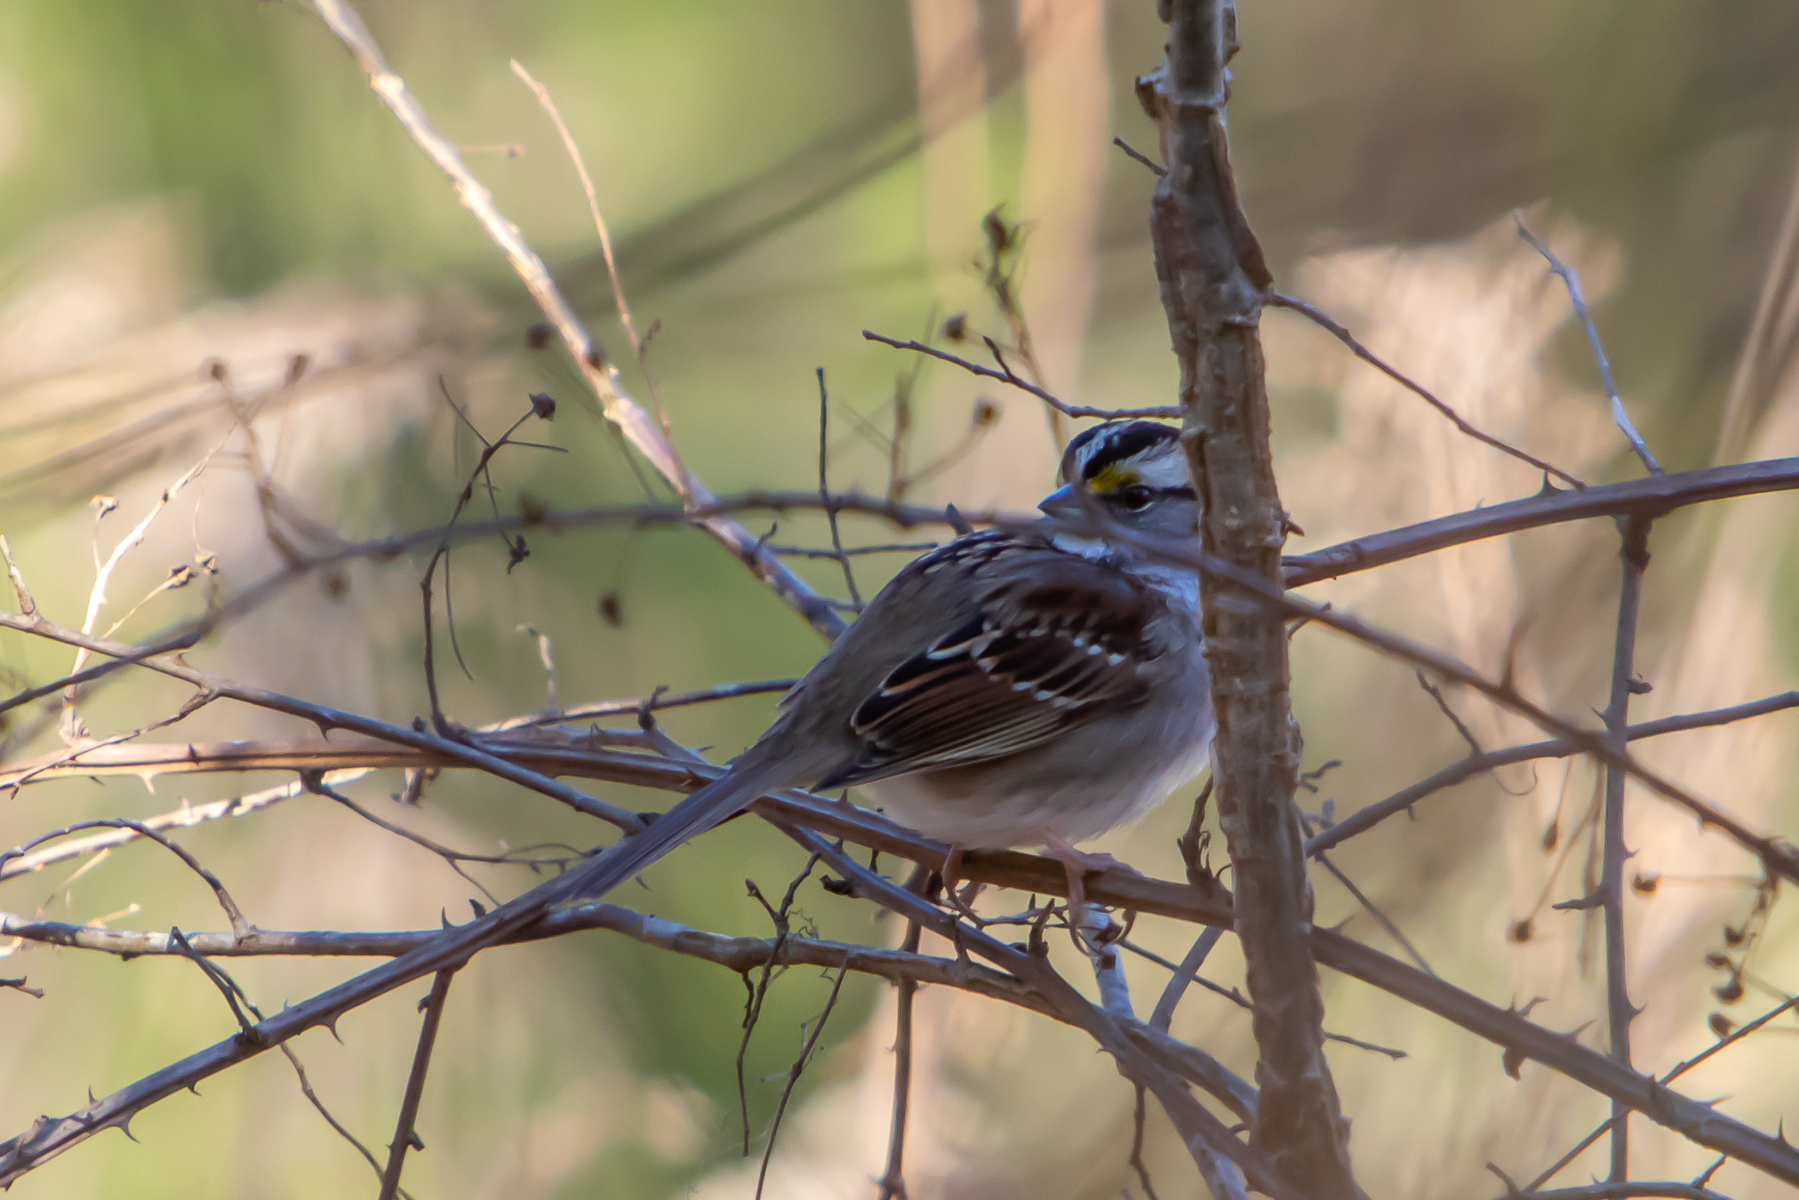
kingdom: Animalia
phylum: Chordata
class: Aves
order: Passeriformes
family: Passerellidae
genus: Zonotrichia
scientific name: Zonotrichia albicollis
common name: White-throated sparrow
